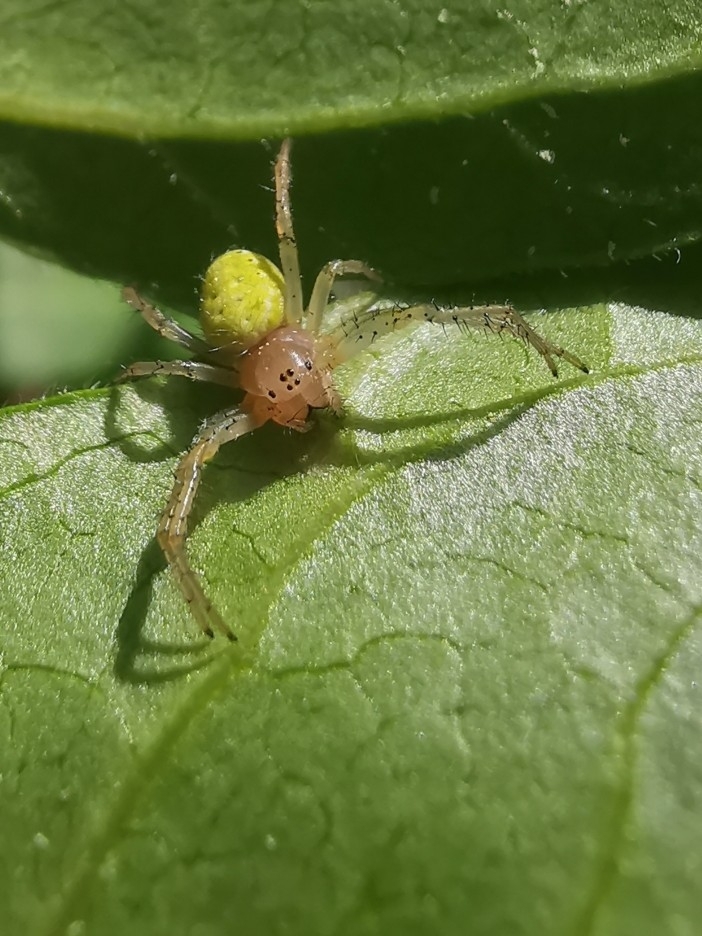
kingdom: Animalia
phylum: Arthropoda
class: Arachnida
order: Araneae
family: Araneidae
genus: Araniella
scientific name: Araniella
